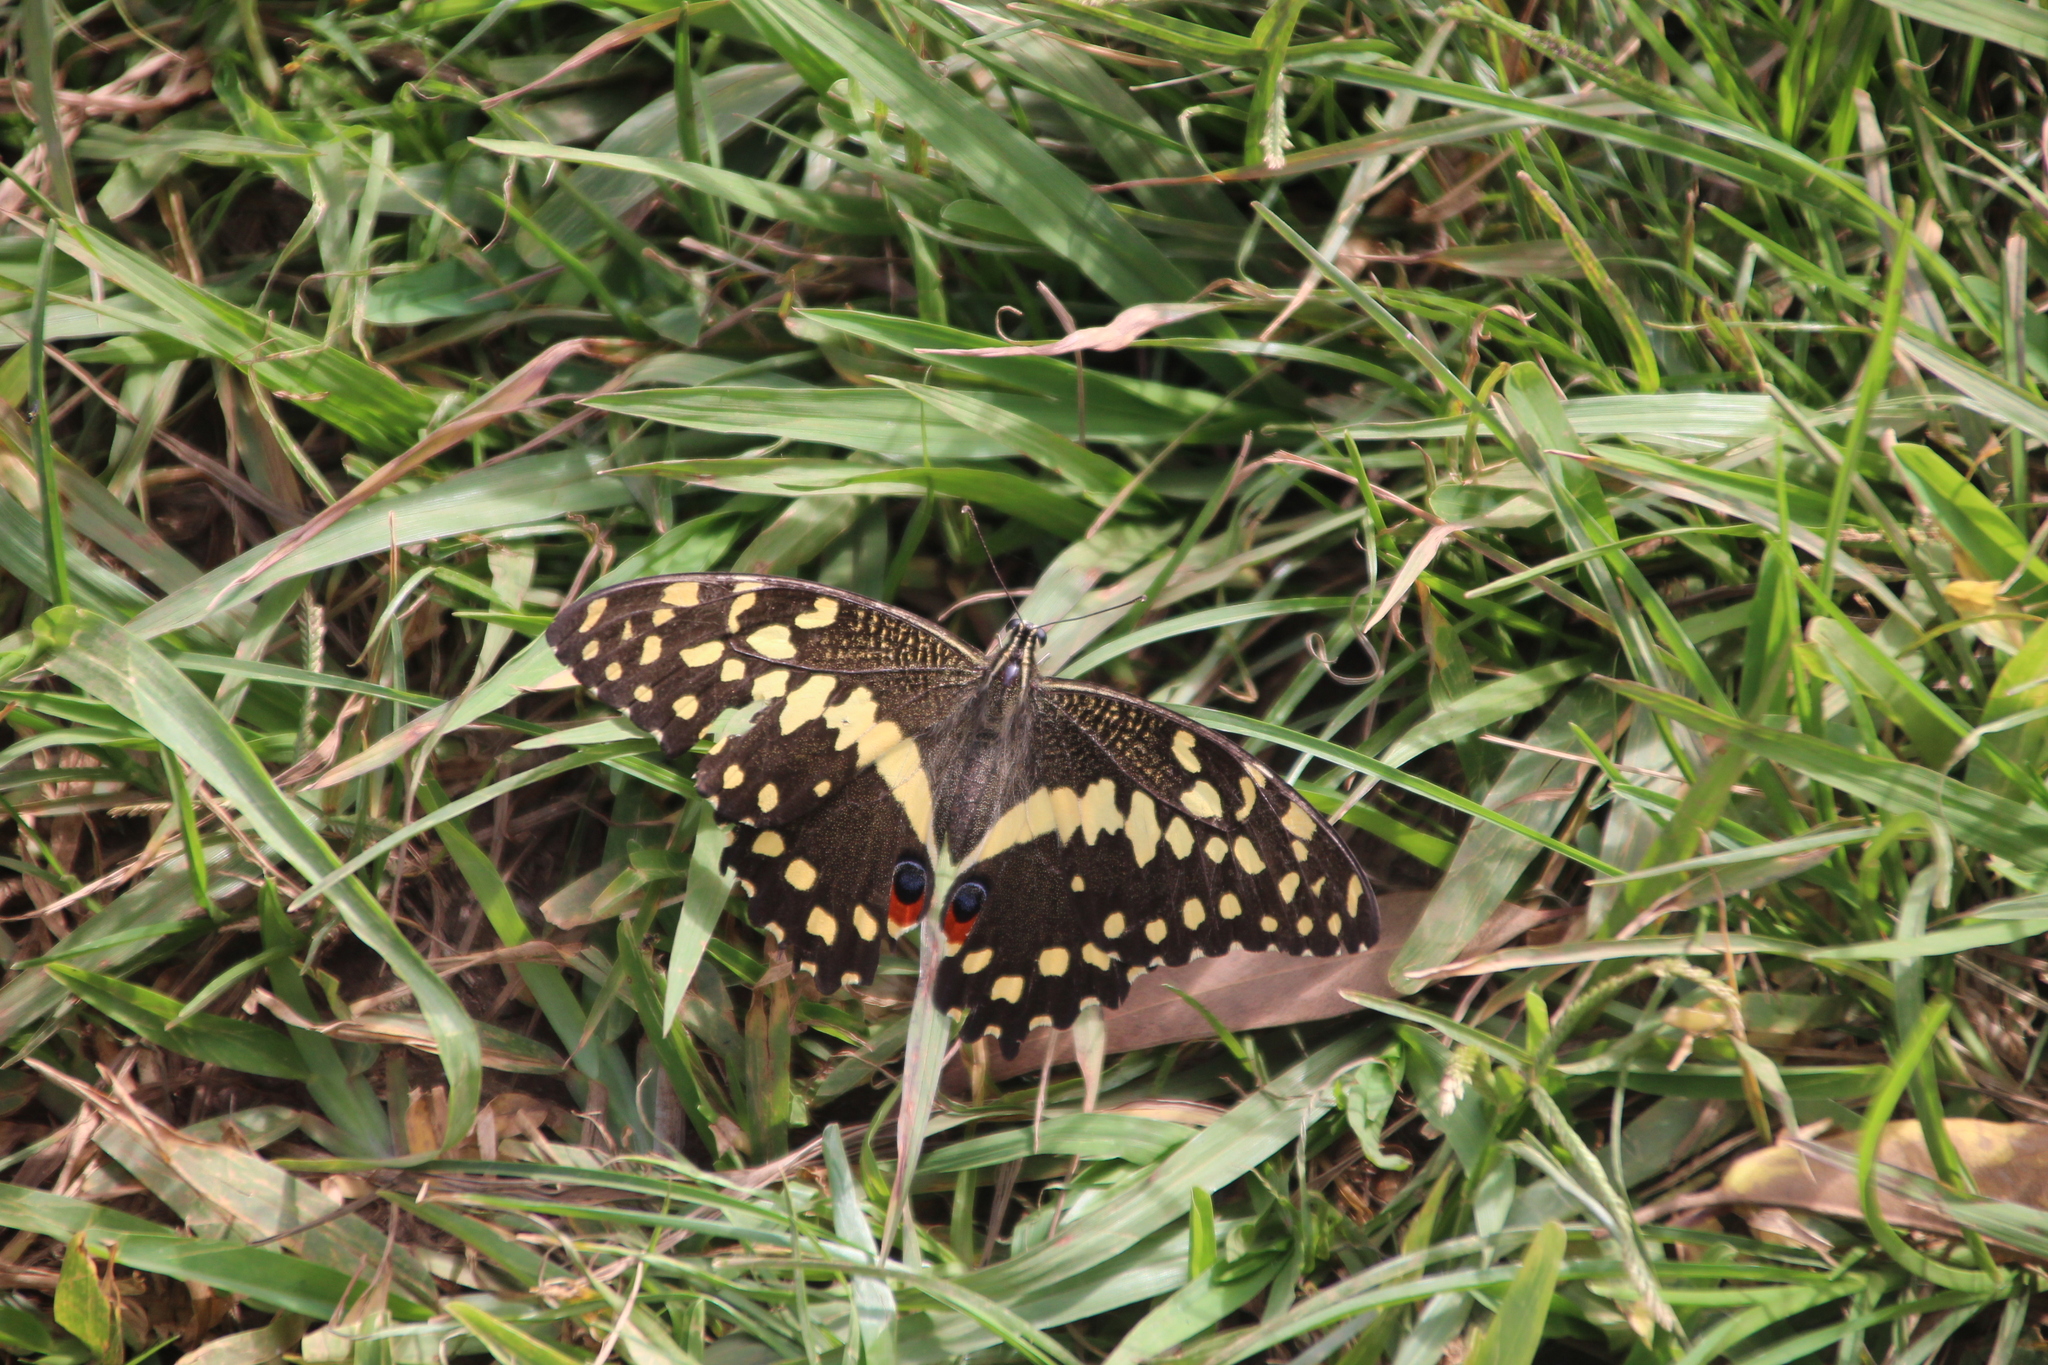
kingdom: Animalia
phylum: Arthropoda
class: Insecta
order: Lepidoptera
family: Papilionidae
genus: Papilio
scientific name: Papilio demodocus
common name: Christmas butterfly
